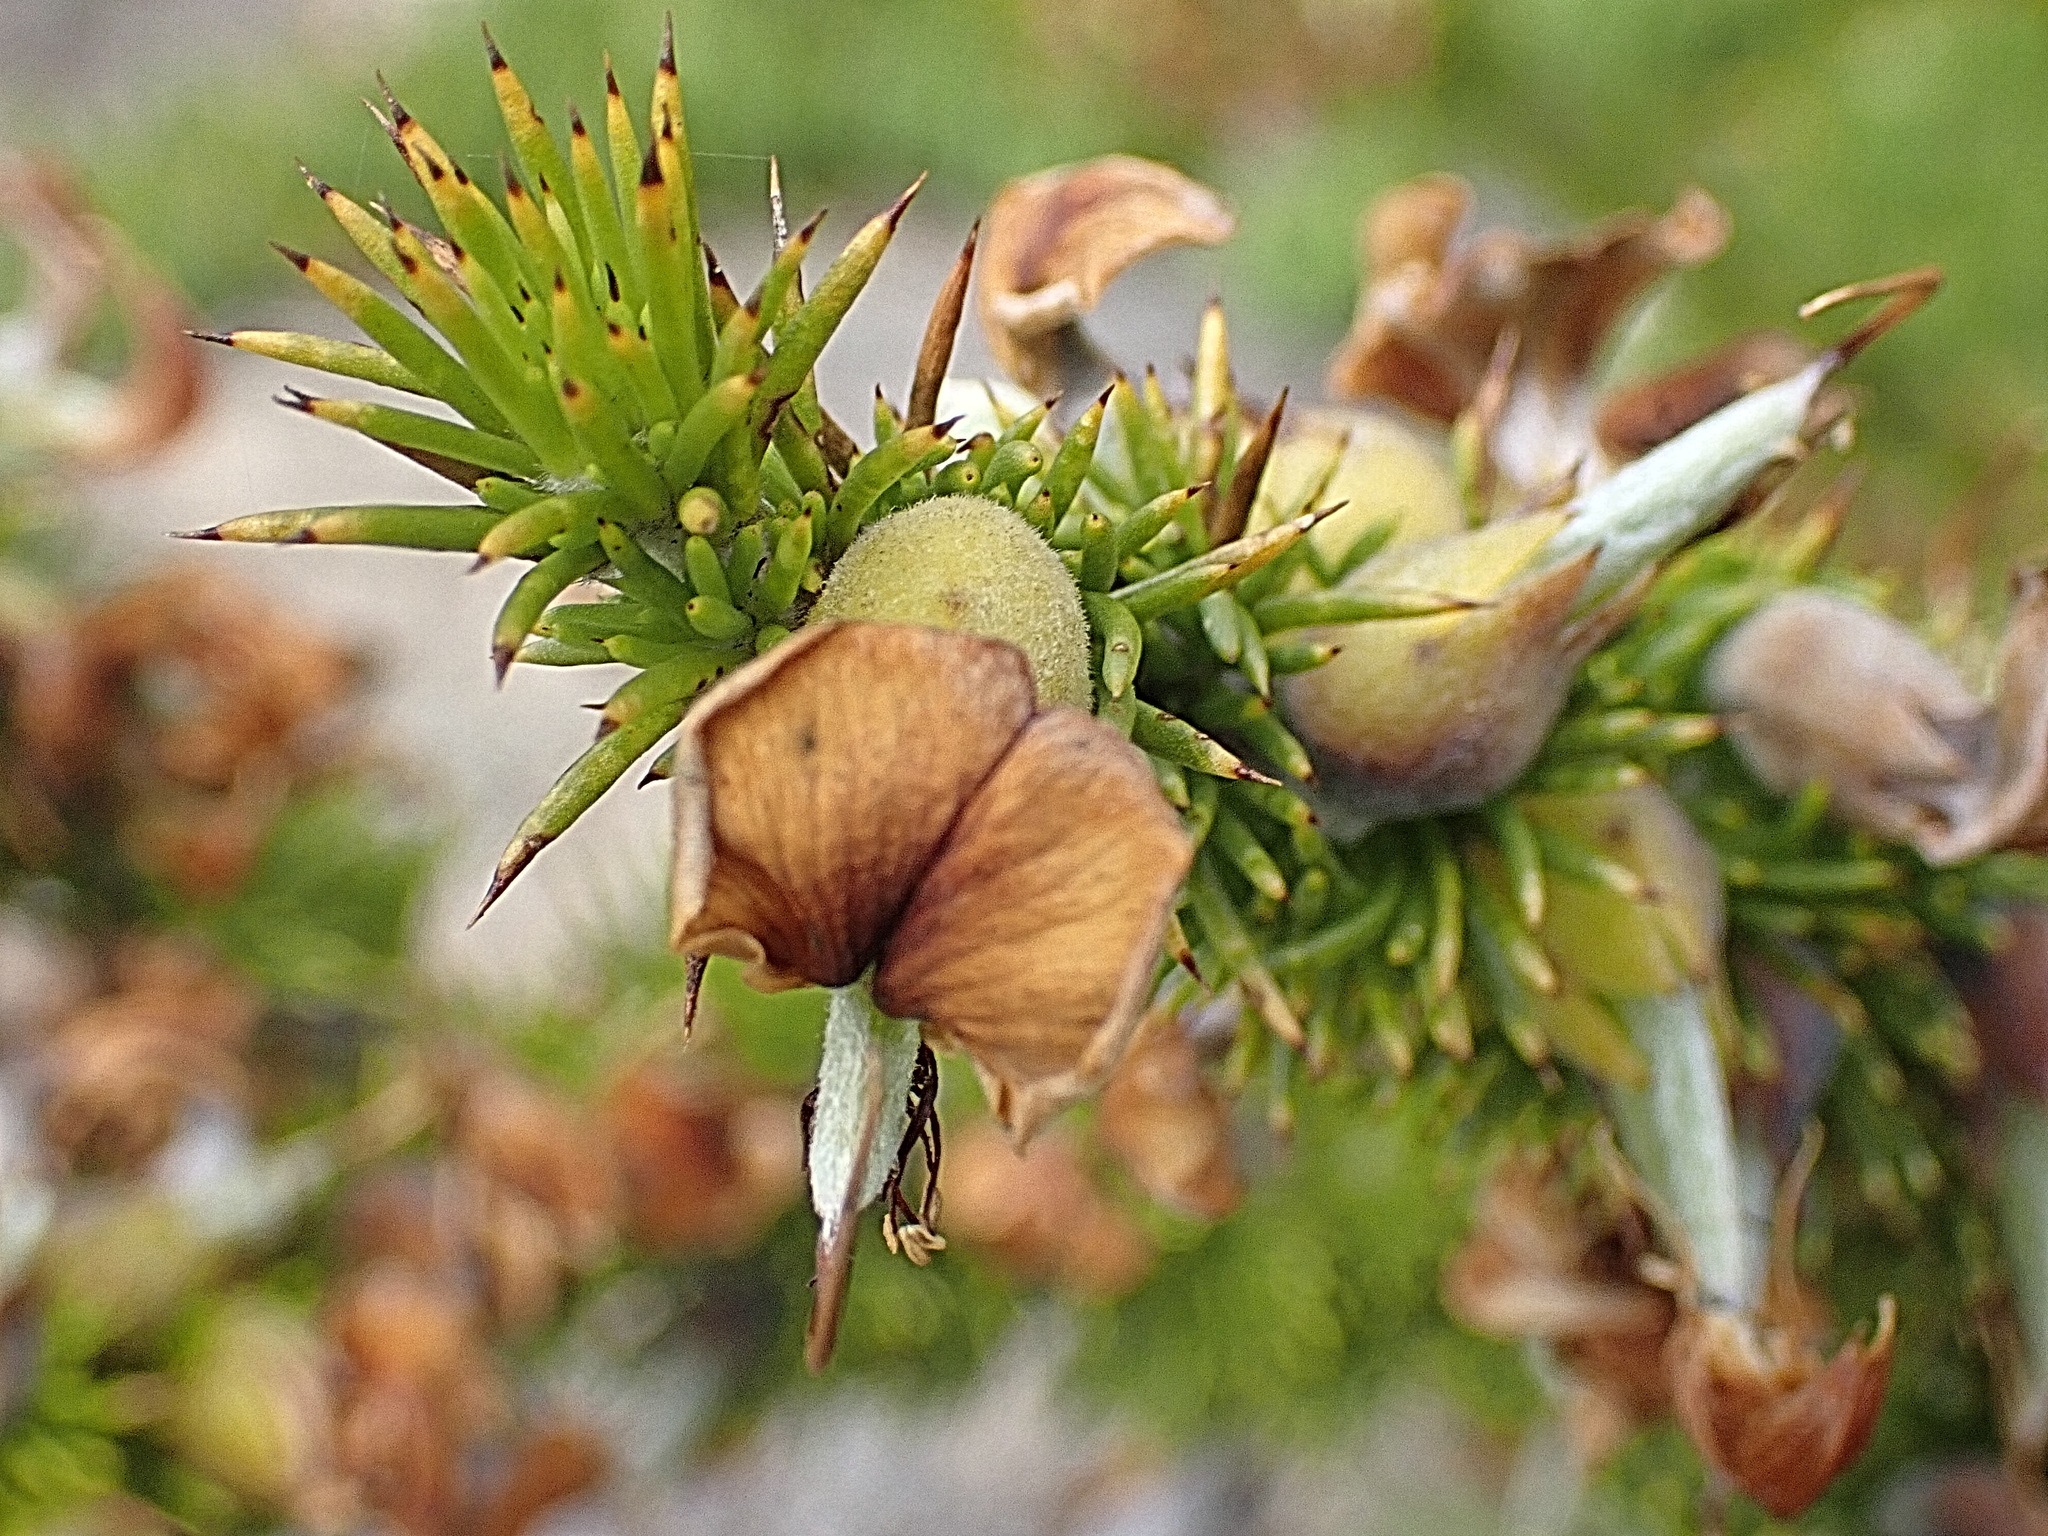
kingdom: Plantae
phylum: Tracheophyta
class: Magnoliopsida
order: Fabales
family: Fabaceae
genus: Aspalathus
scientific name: Aspalathus sceptrumaureum
